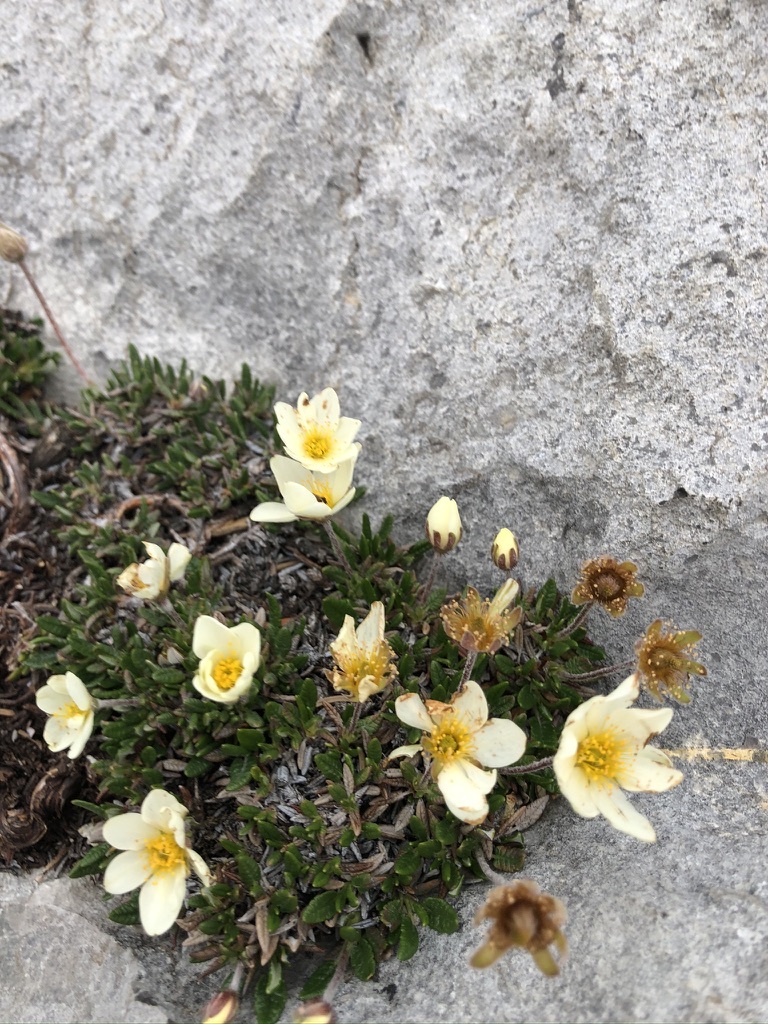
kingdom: Plantae
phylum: Tracheophyta
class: Magnoliopsida
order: Rosales
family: Rosaceae
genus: Dryas
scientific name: Dryas integrifolia
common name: Entire-leaved mountain avens
